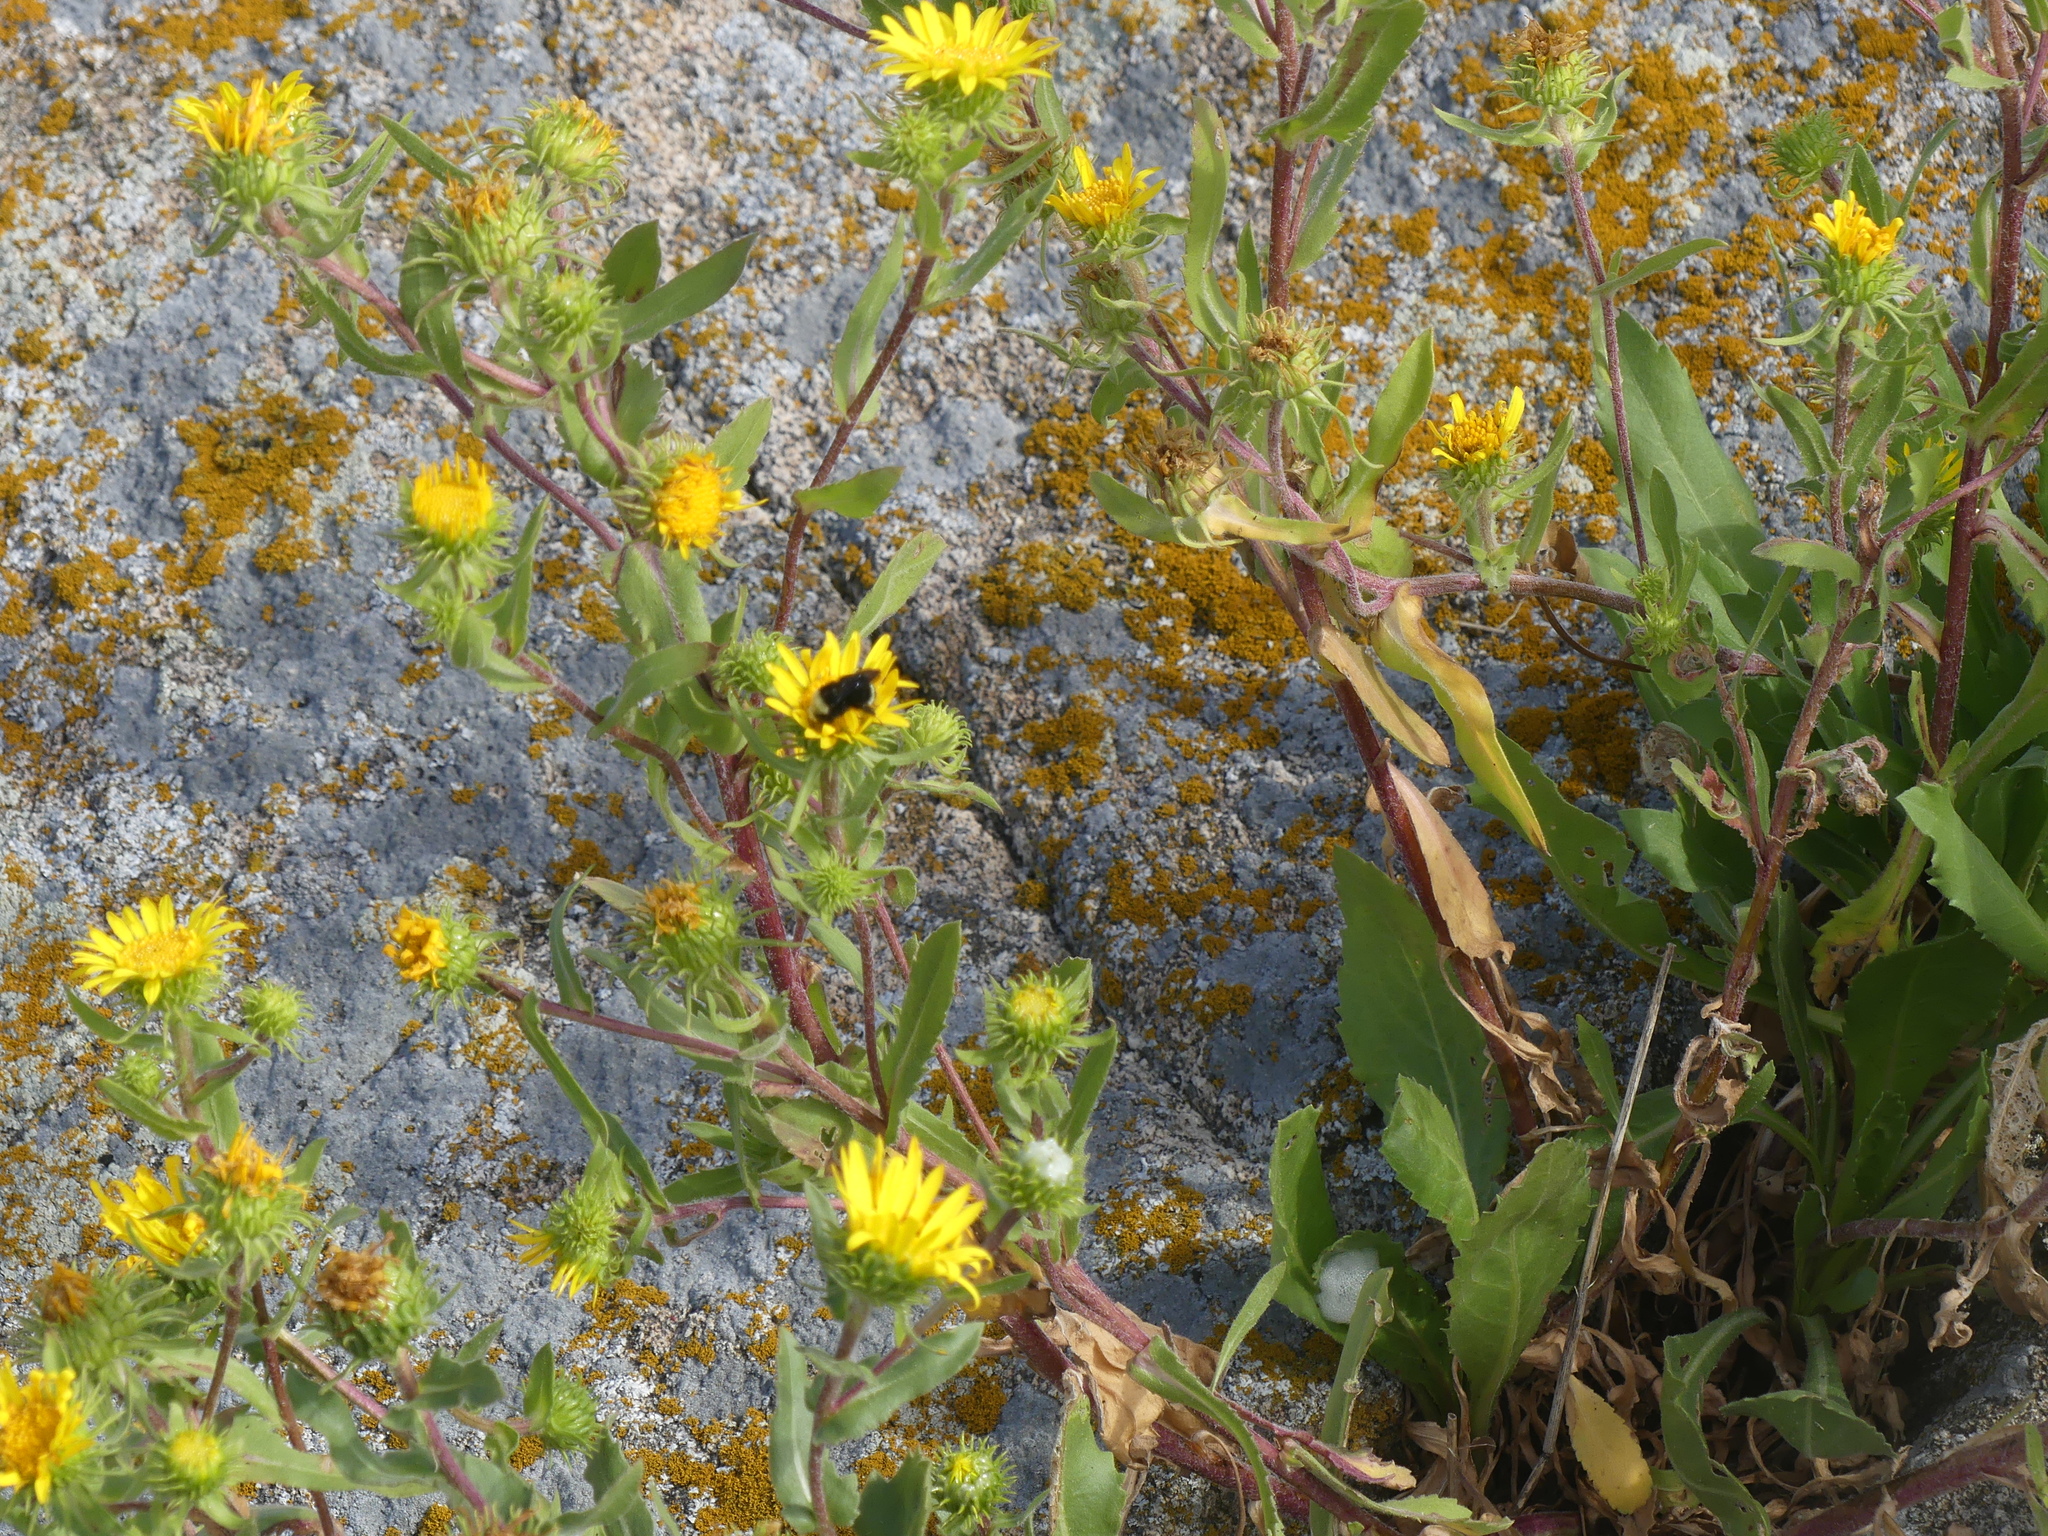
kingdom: Animalia
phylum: Arthropoda
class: Insecta
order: Hymenoptera
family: Apidae
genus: Bombus
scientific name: Bombus vosnesenskii
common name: Vosnesensky bumble bee
